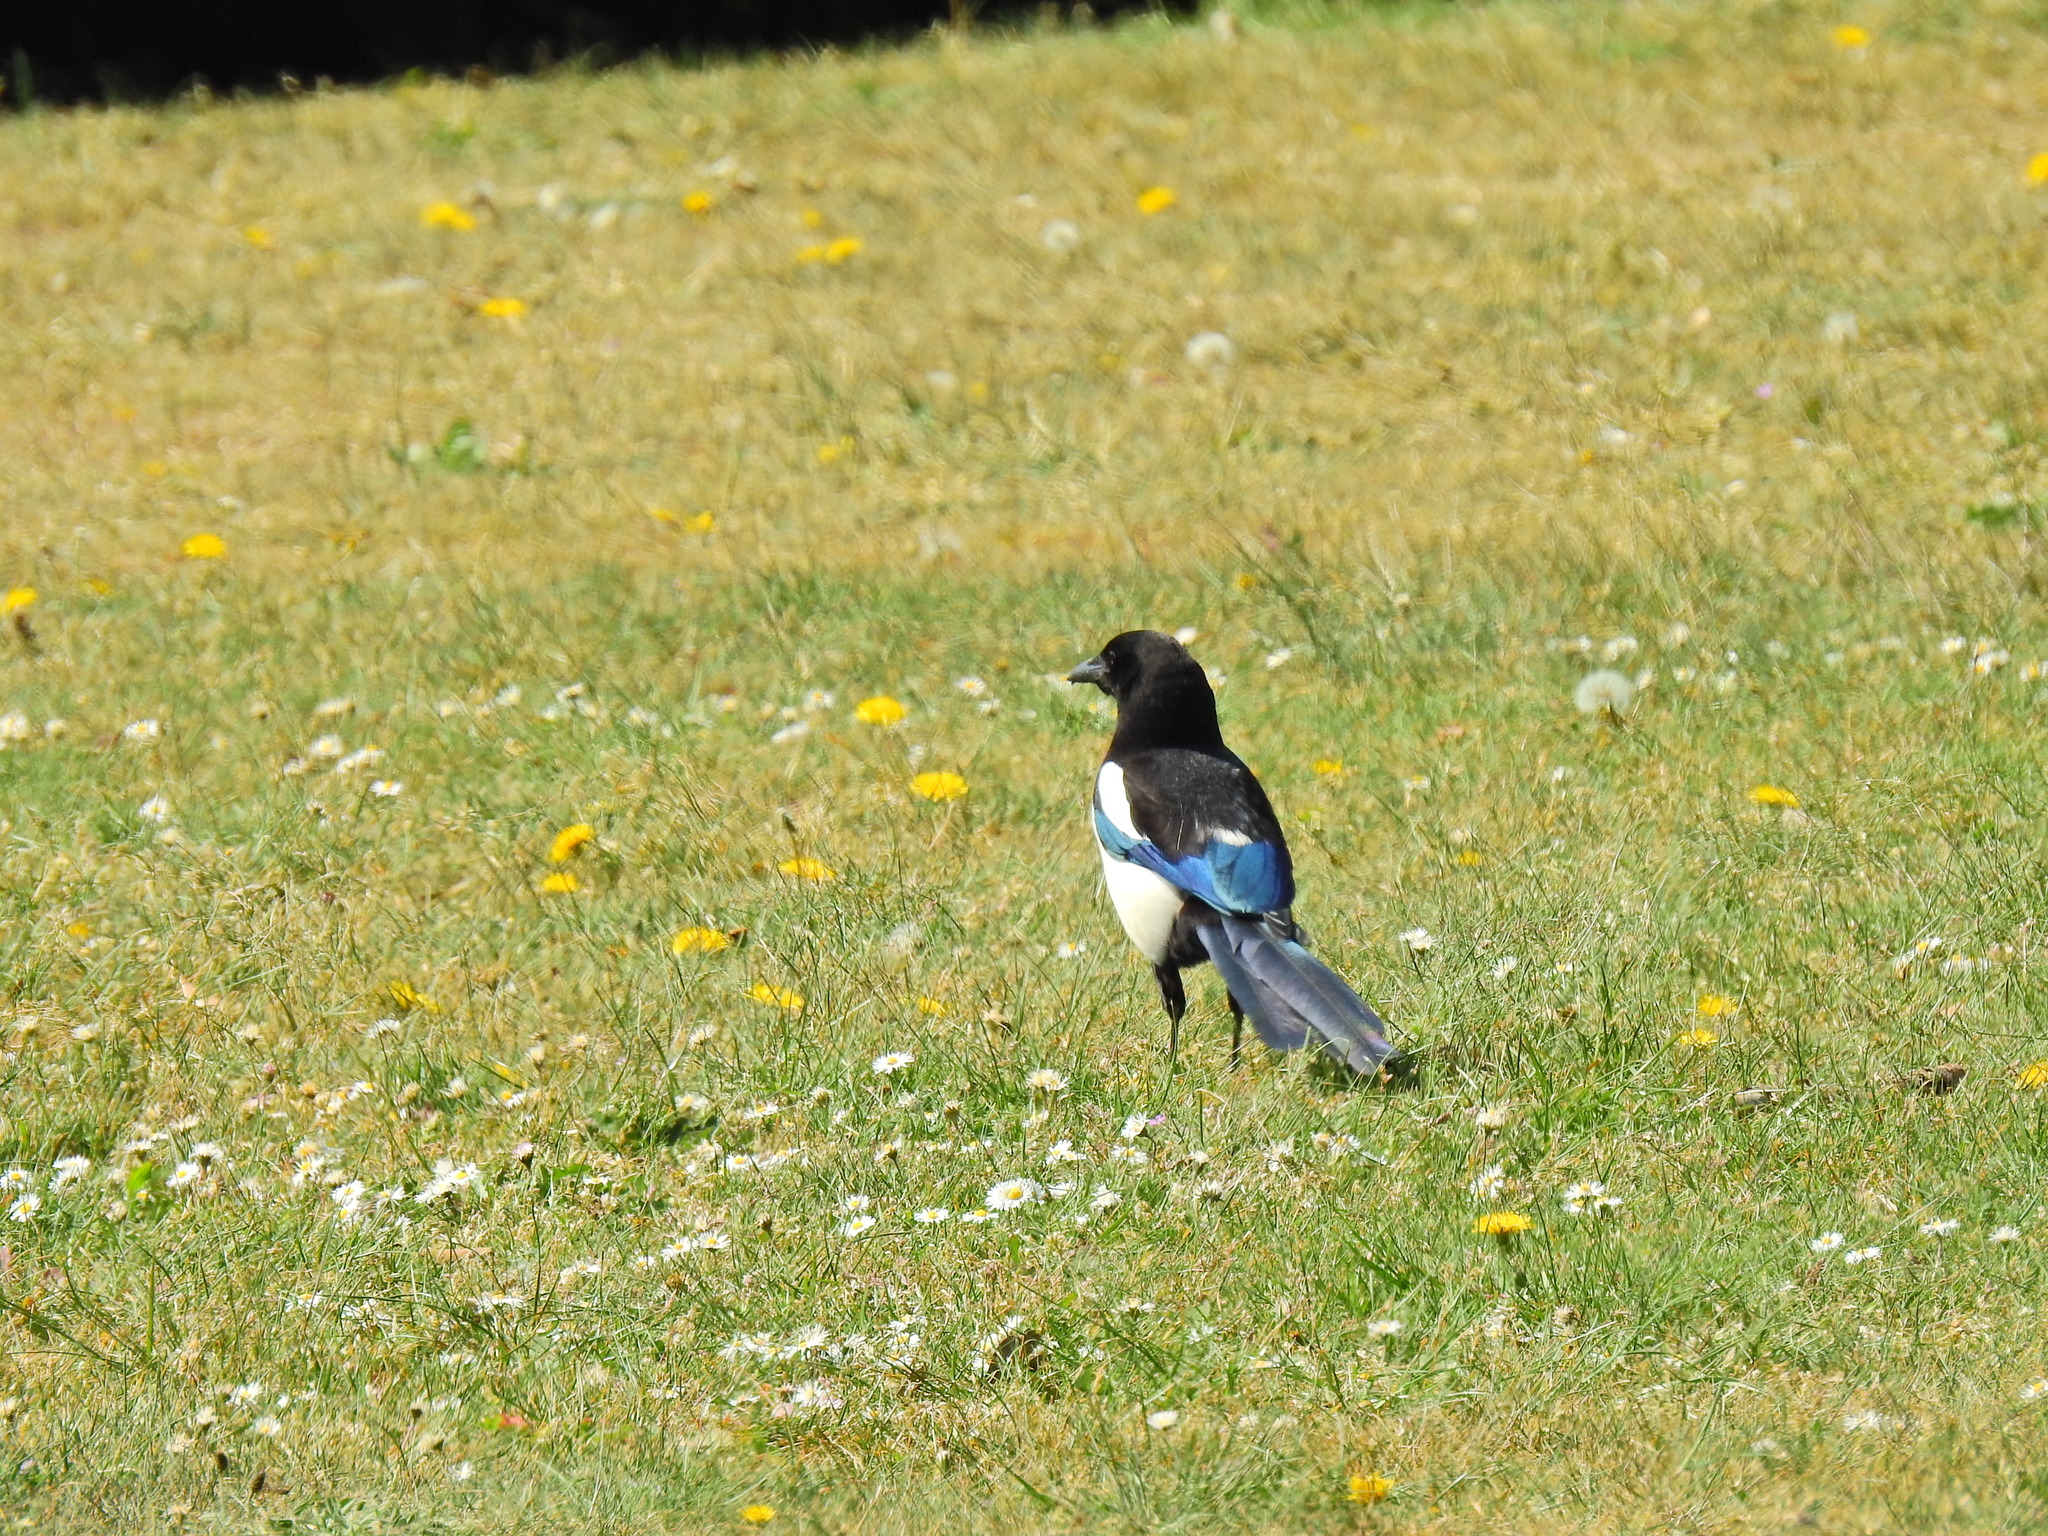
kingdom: Animalia
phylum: Chordata
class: Aves
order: Passeriformes
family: Corvidae
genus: Pica
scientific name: Pica pica
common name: Eurasian magpie
